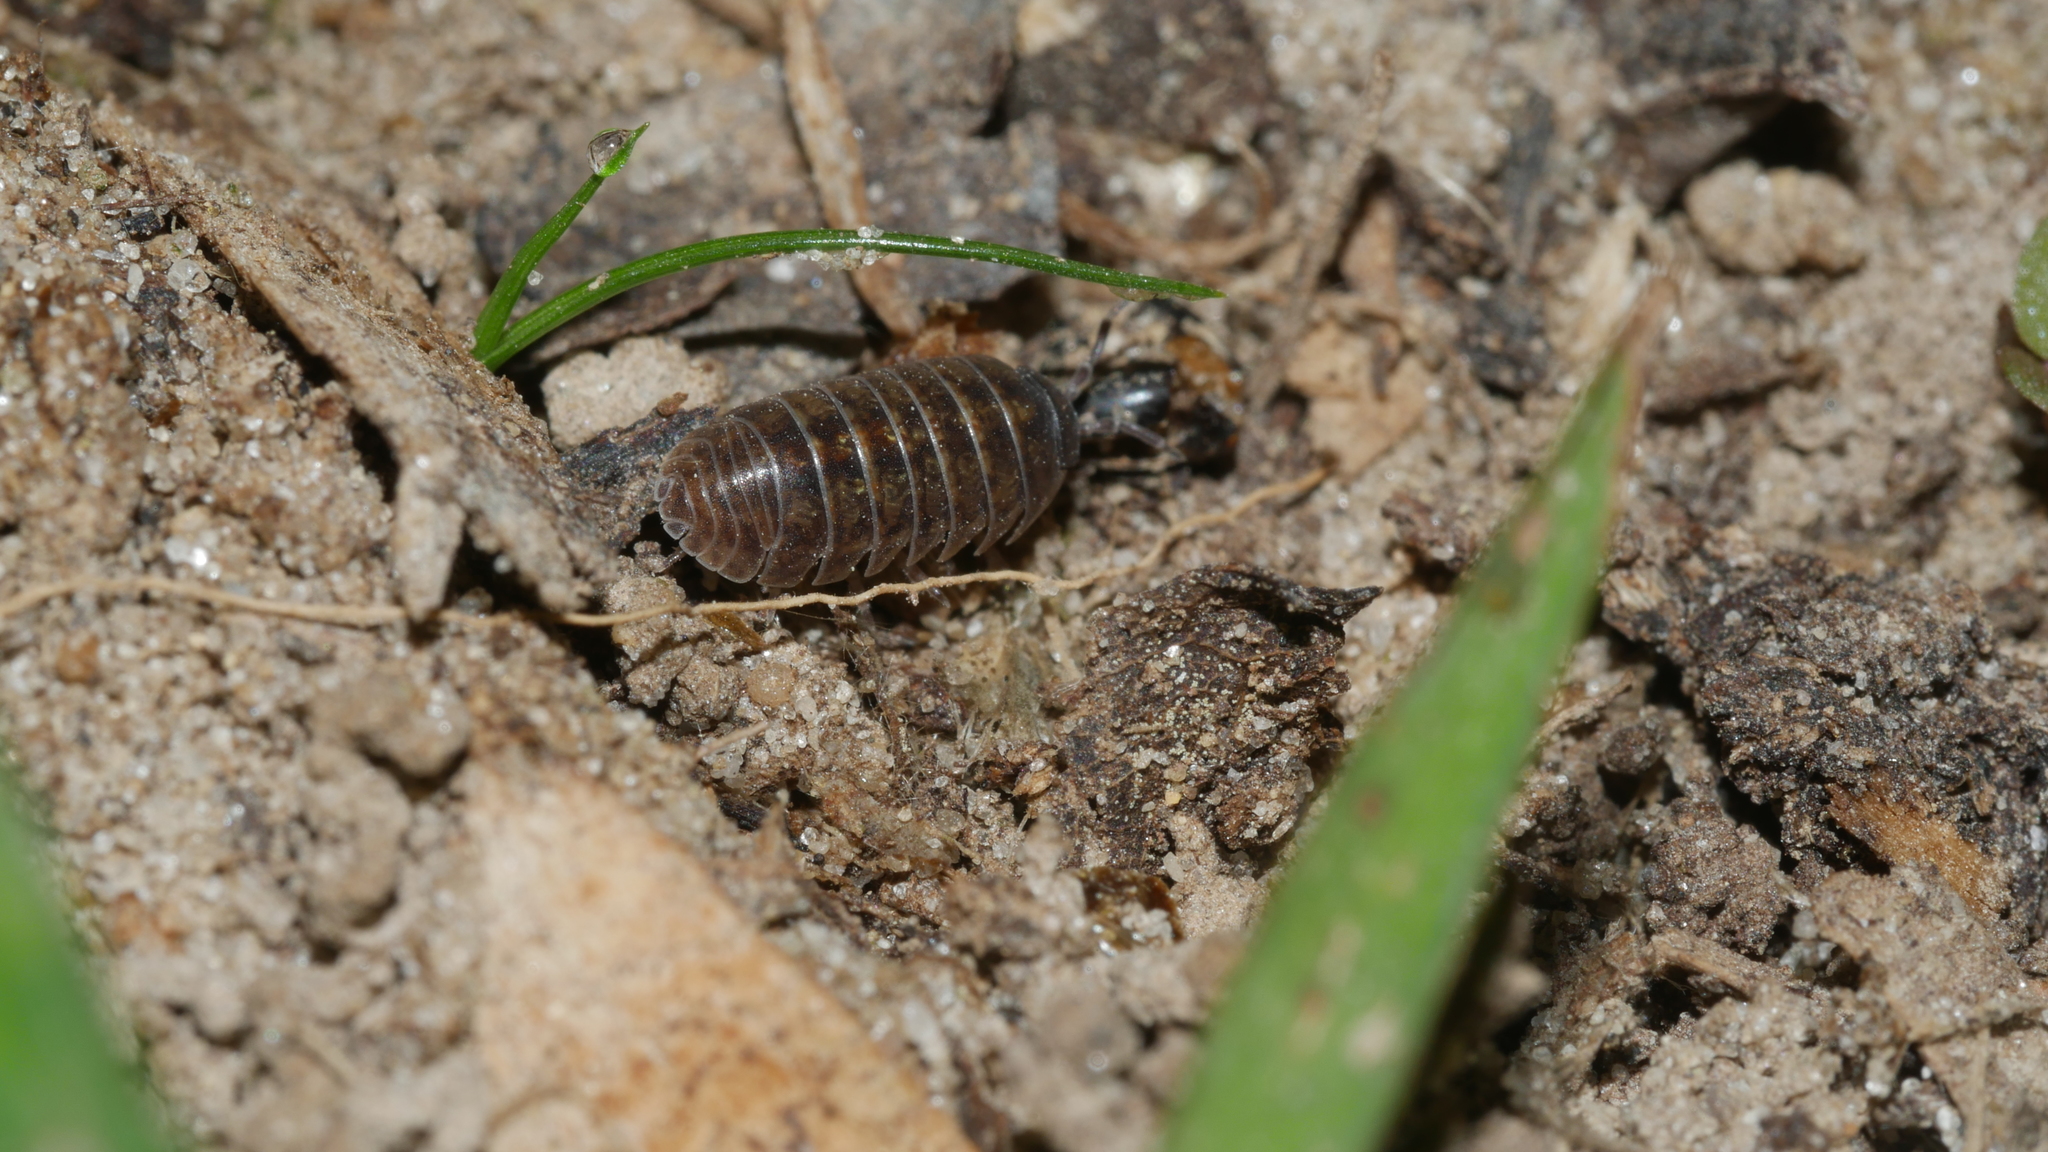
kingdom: Animalia
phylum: Arthropoda
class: Malacostraca
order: Isopoda
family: Armadillidiidae
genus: Armadillidium
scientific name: Armadillidium vulgare
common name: Common pill woodlouse
